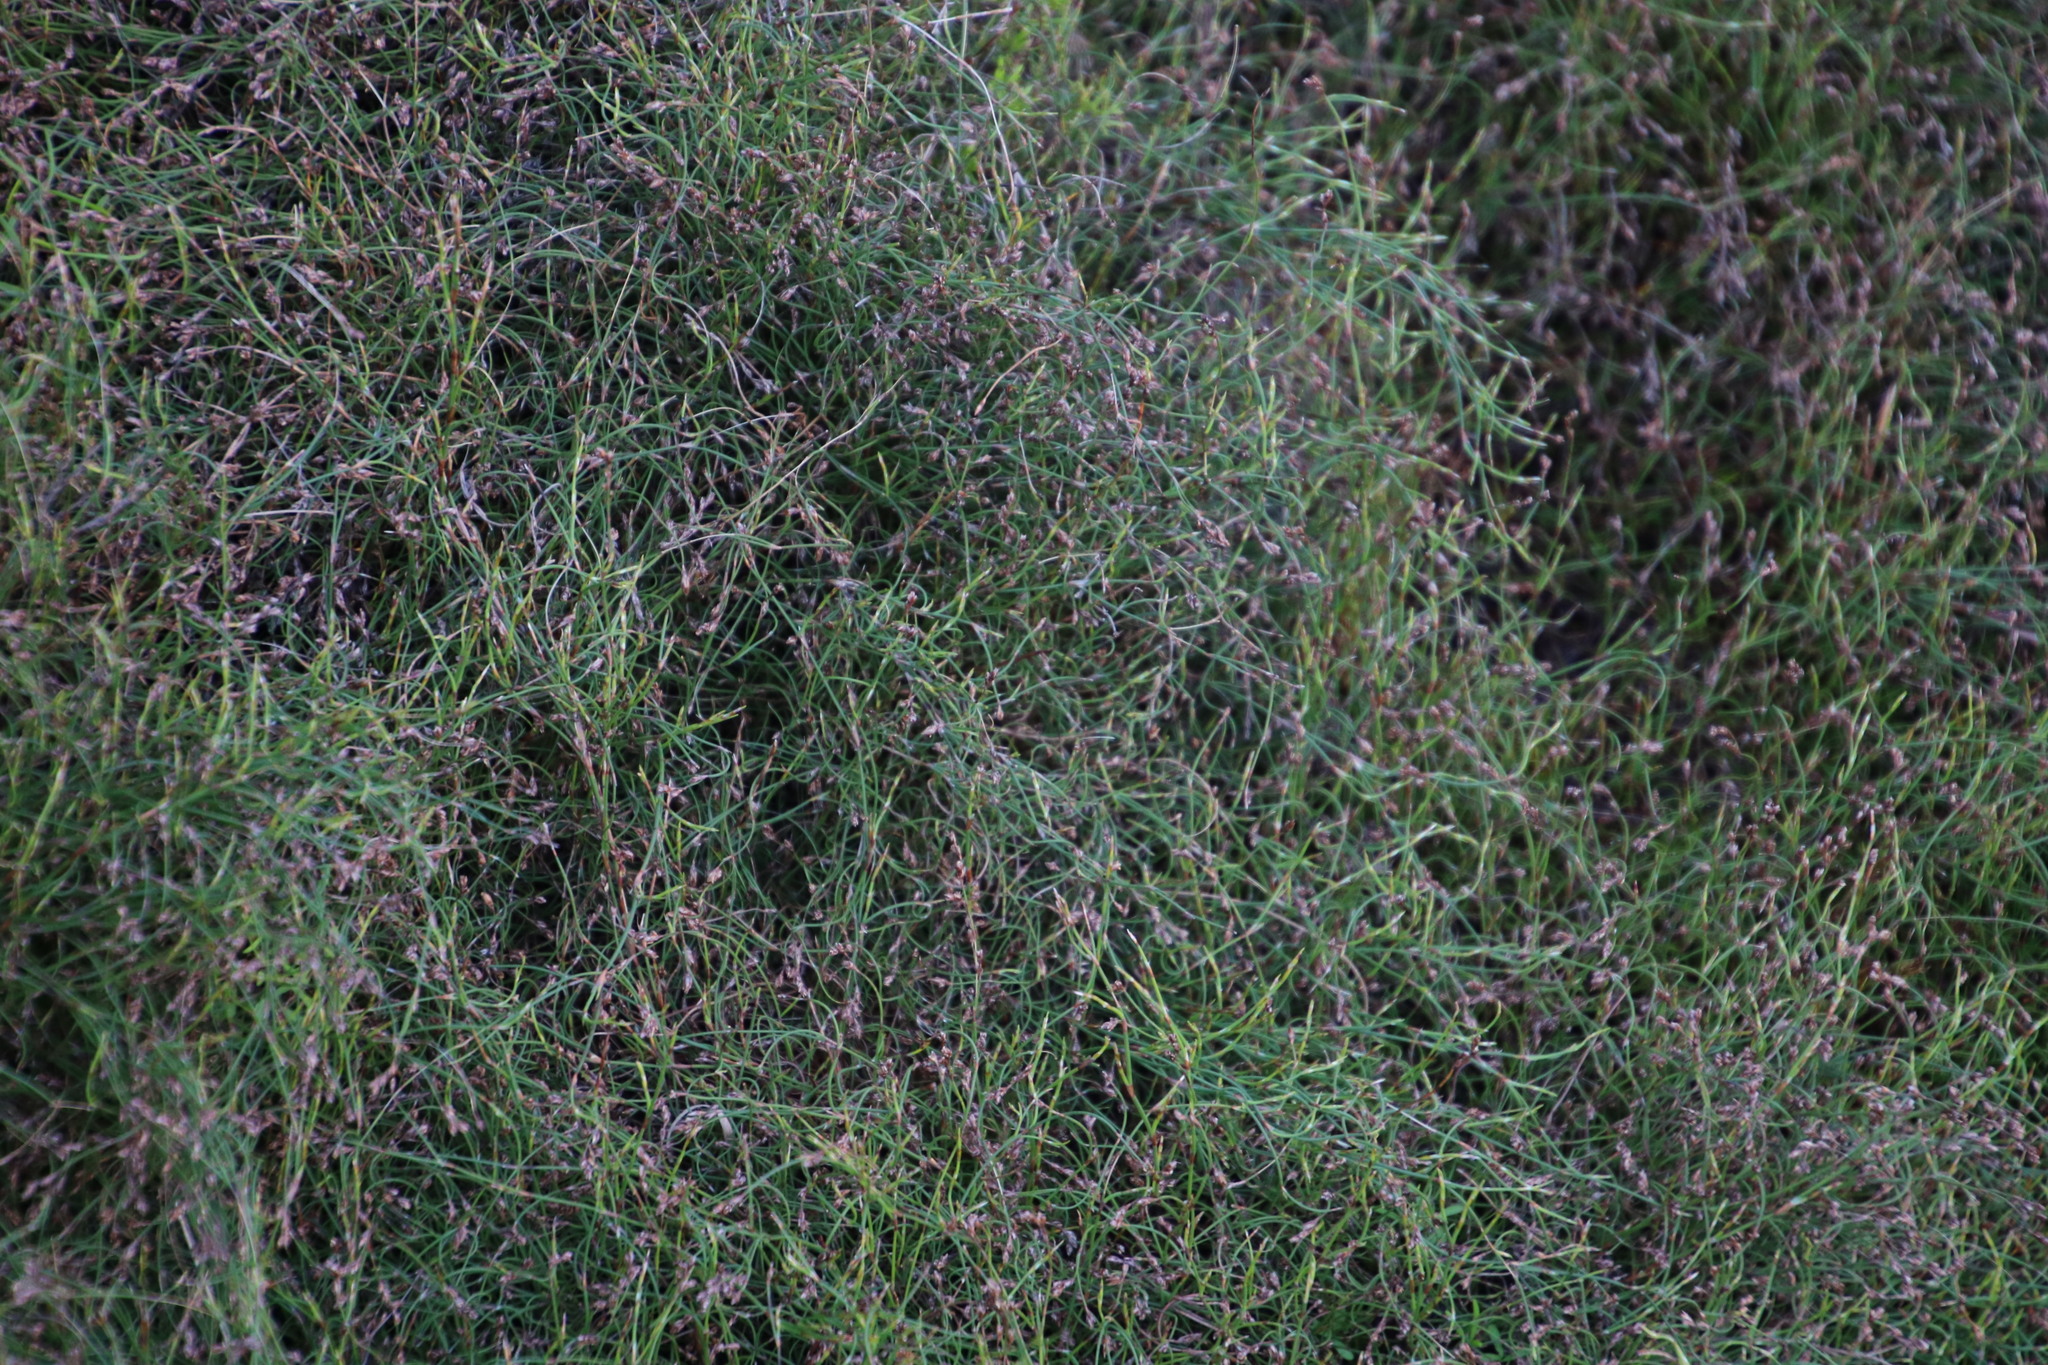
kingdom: Plantae
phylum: Tracheophyta
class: Liliopsida
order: Poales
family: Restionaceae
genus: Anthochortus
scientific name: Anthochortus crinalis
